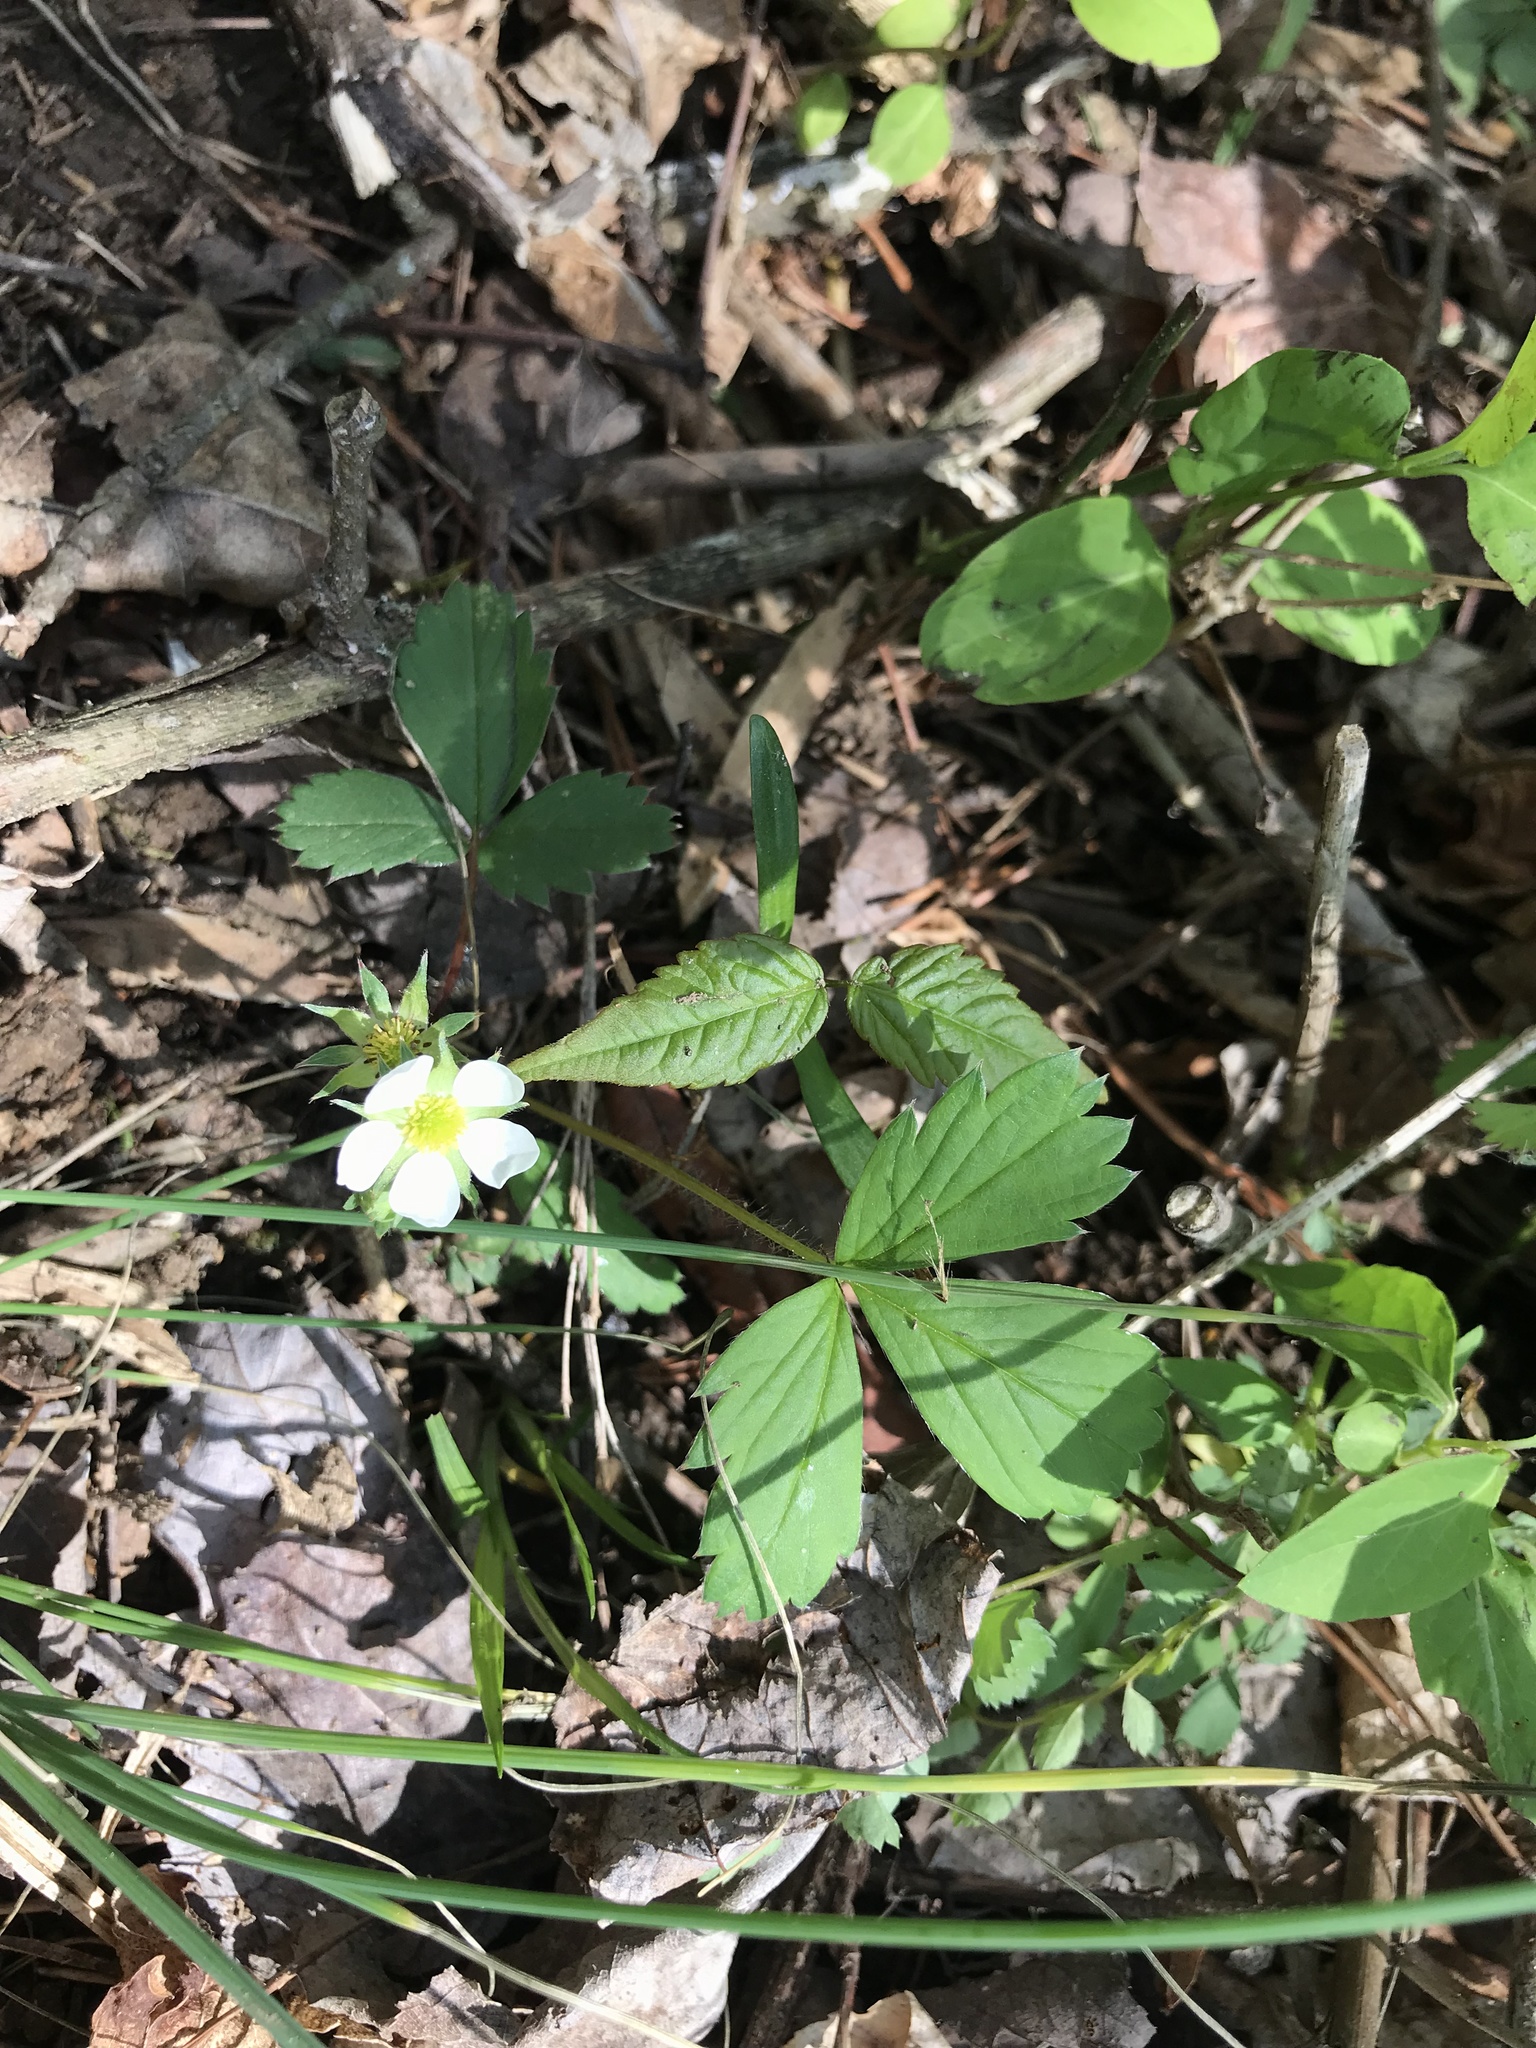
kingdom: Plantae
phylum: Tracheophyta
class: Magnoliopsida
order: Rosales
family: Rosaceae
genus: Fragaria
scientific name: Fragaria virginiana
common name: Thickleaved wild strawberry
